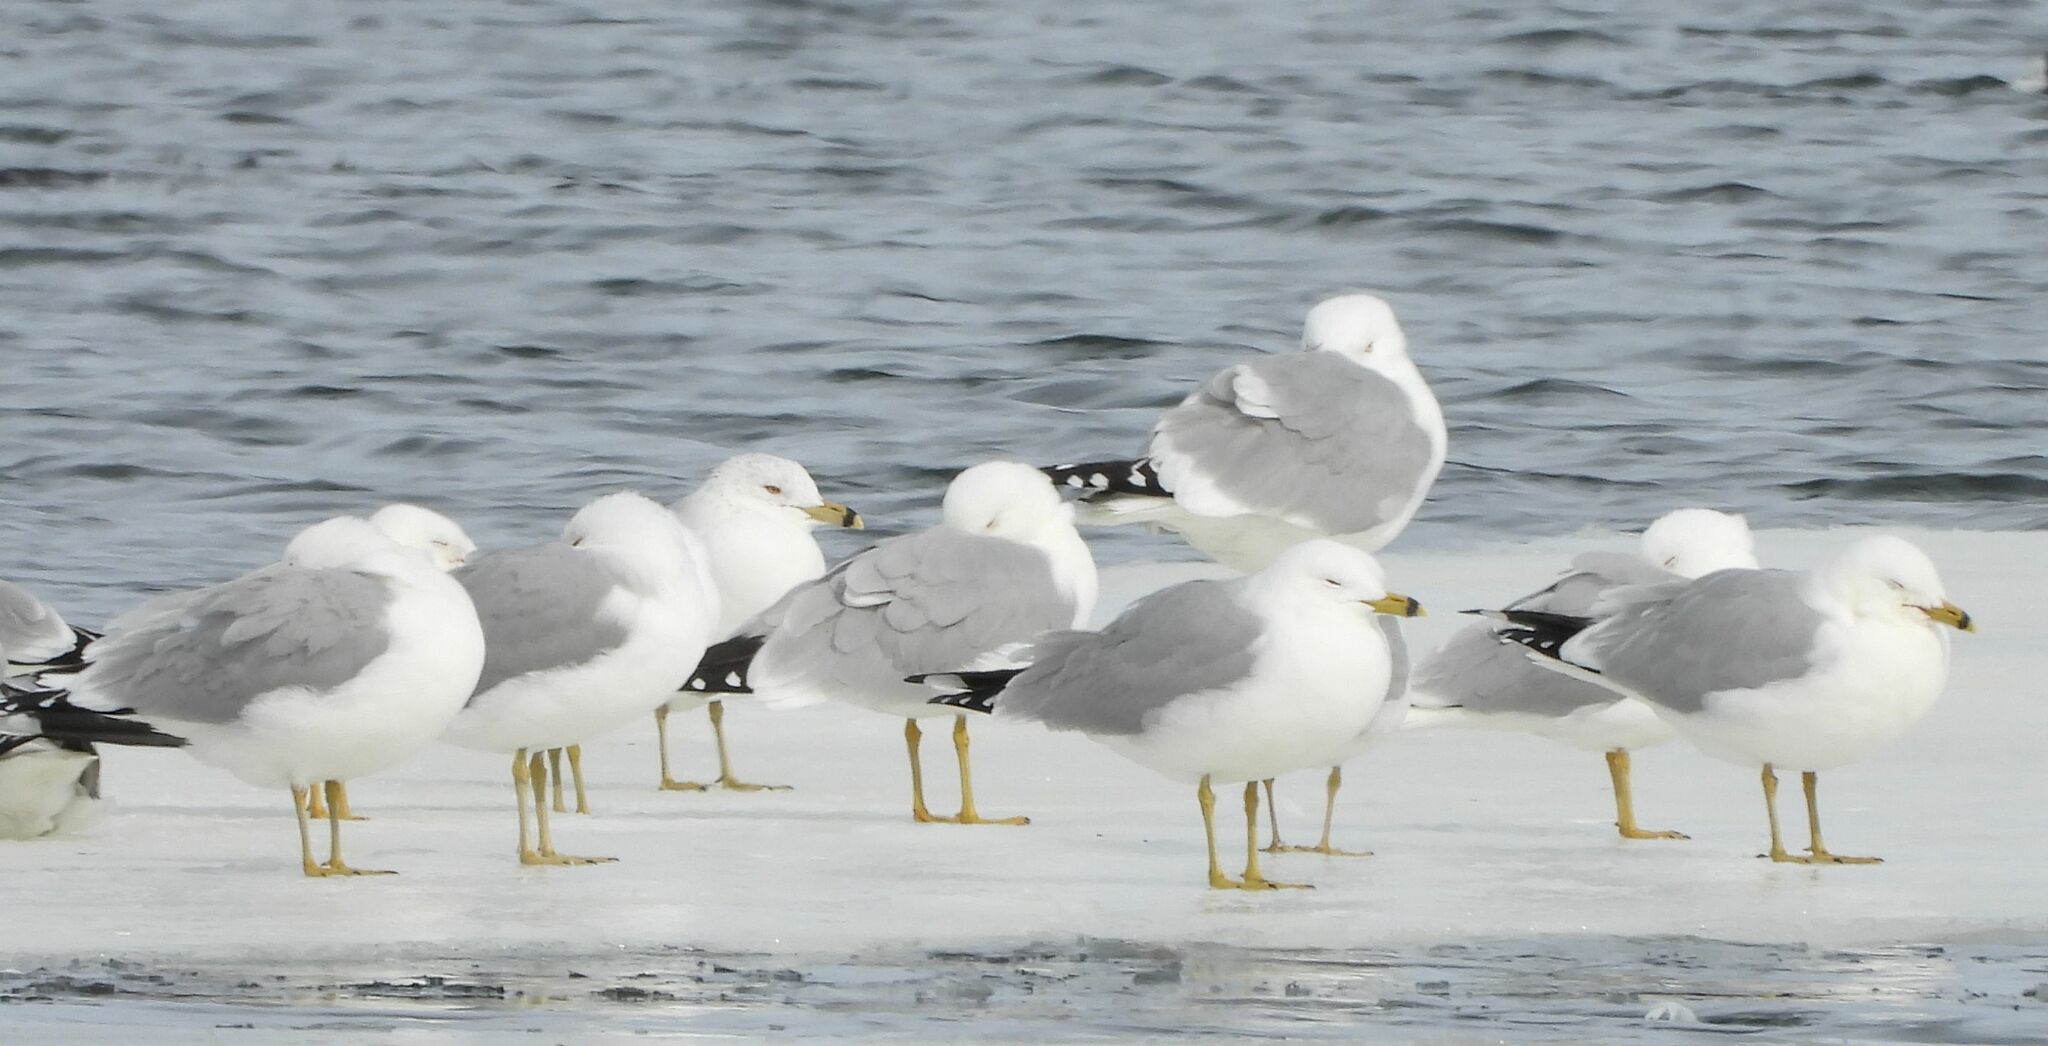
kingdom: Animalia
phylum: Chordata
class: Aves
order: Charadriiformes
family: Laridae
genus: Larus
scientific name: Larus delawarensis
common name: Ring-billed gull
